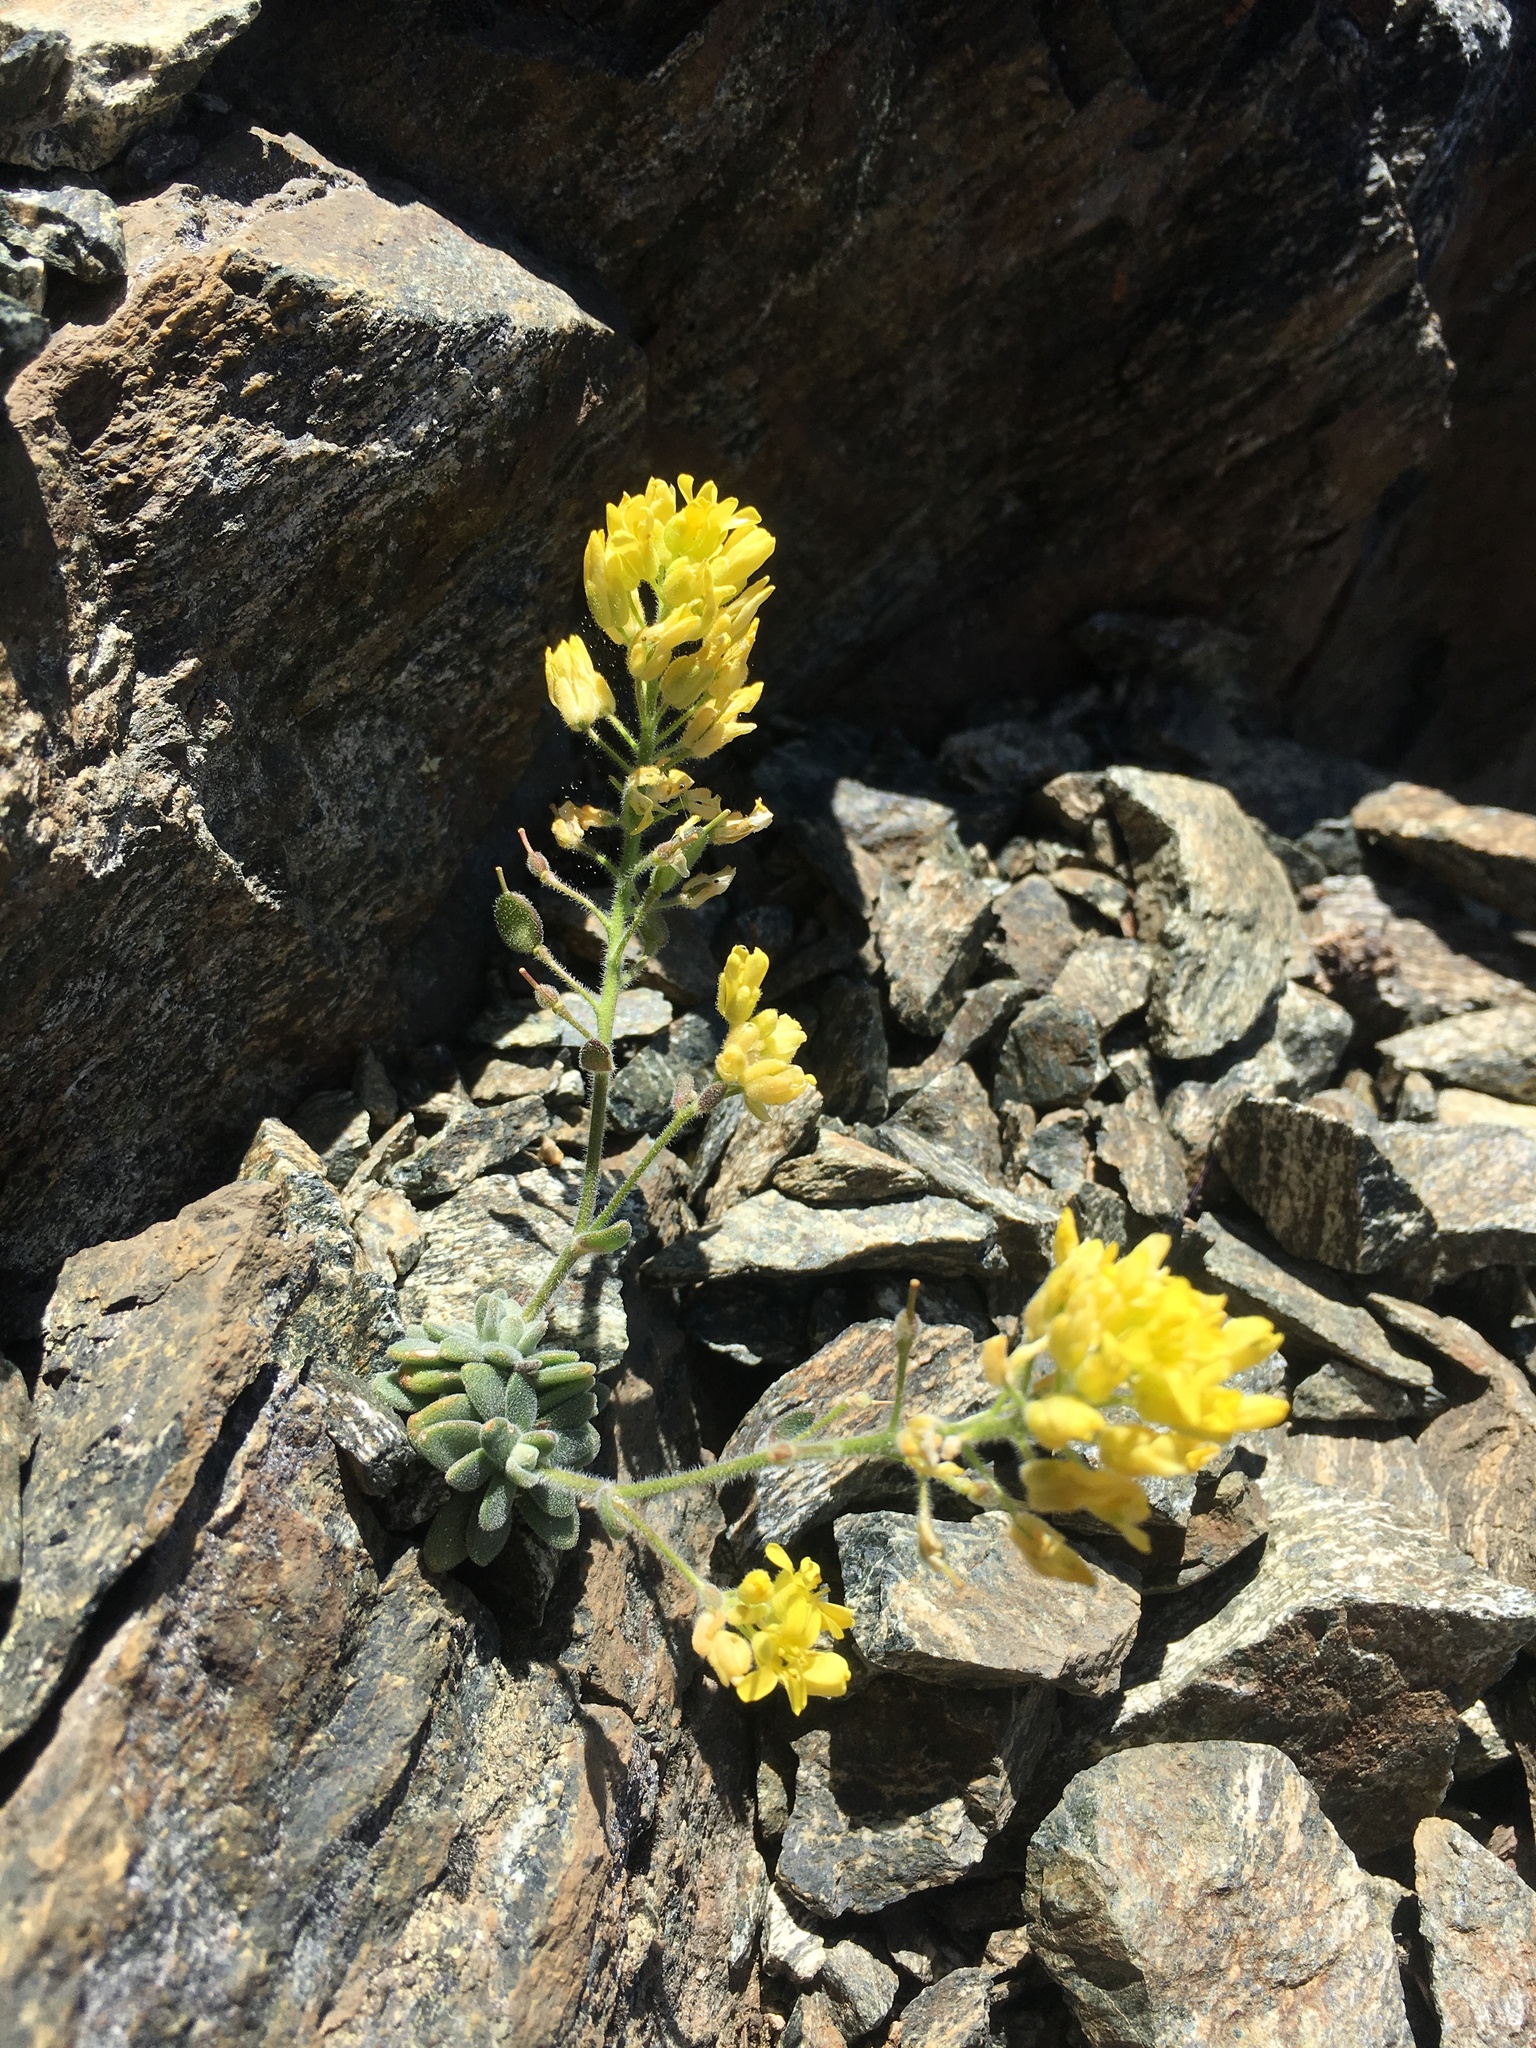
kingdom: Plantae
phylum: Tracheophyta
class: Magnoliopsida
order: Brassicales
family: Brassicaceae
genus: Draba
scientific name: Draba howellii
